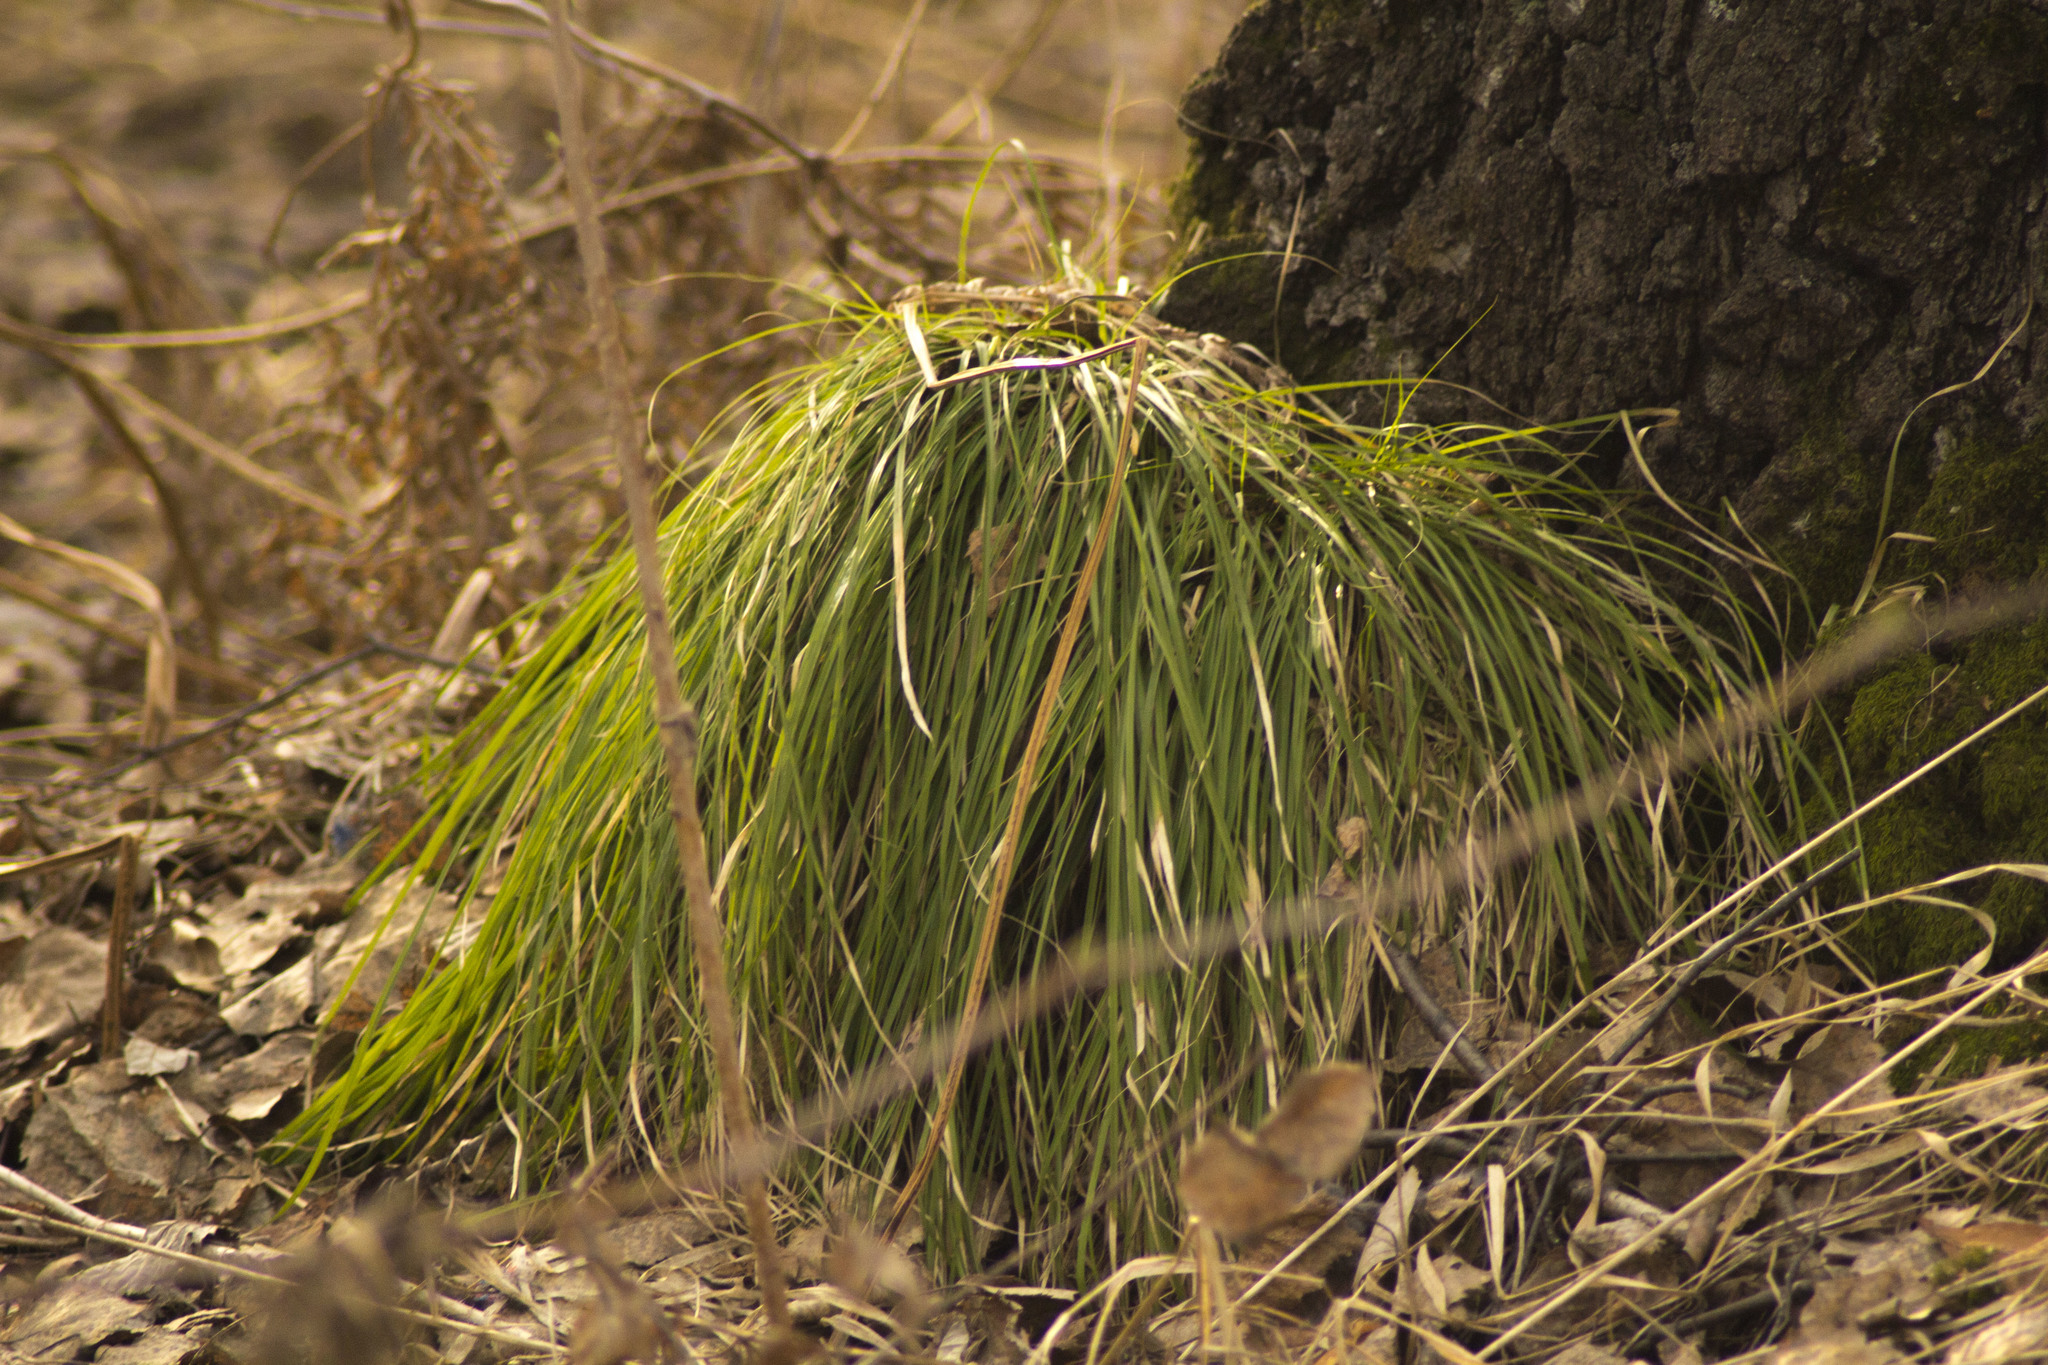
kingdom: Plantae
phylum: Tracheophyta
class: Liliopsida
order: Poales
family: Cyperaceae
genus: Carex
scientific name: Carex pediformis
